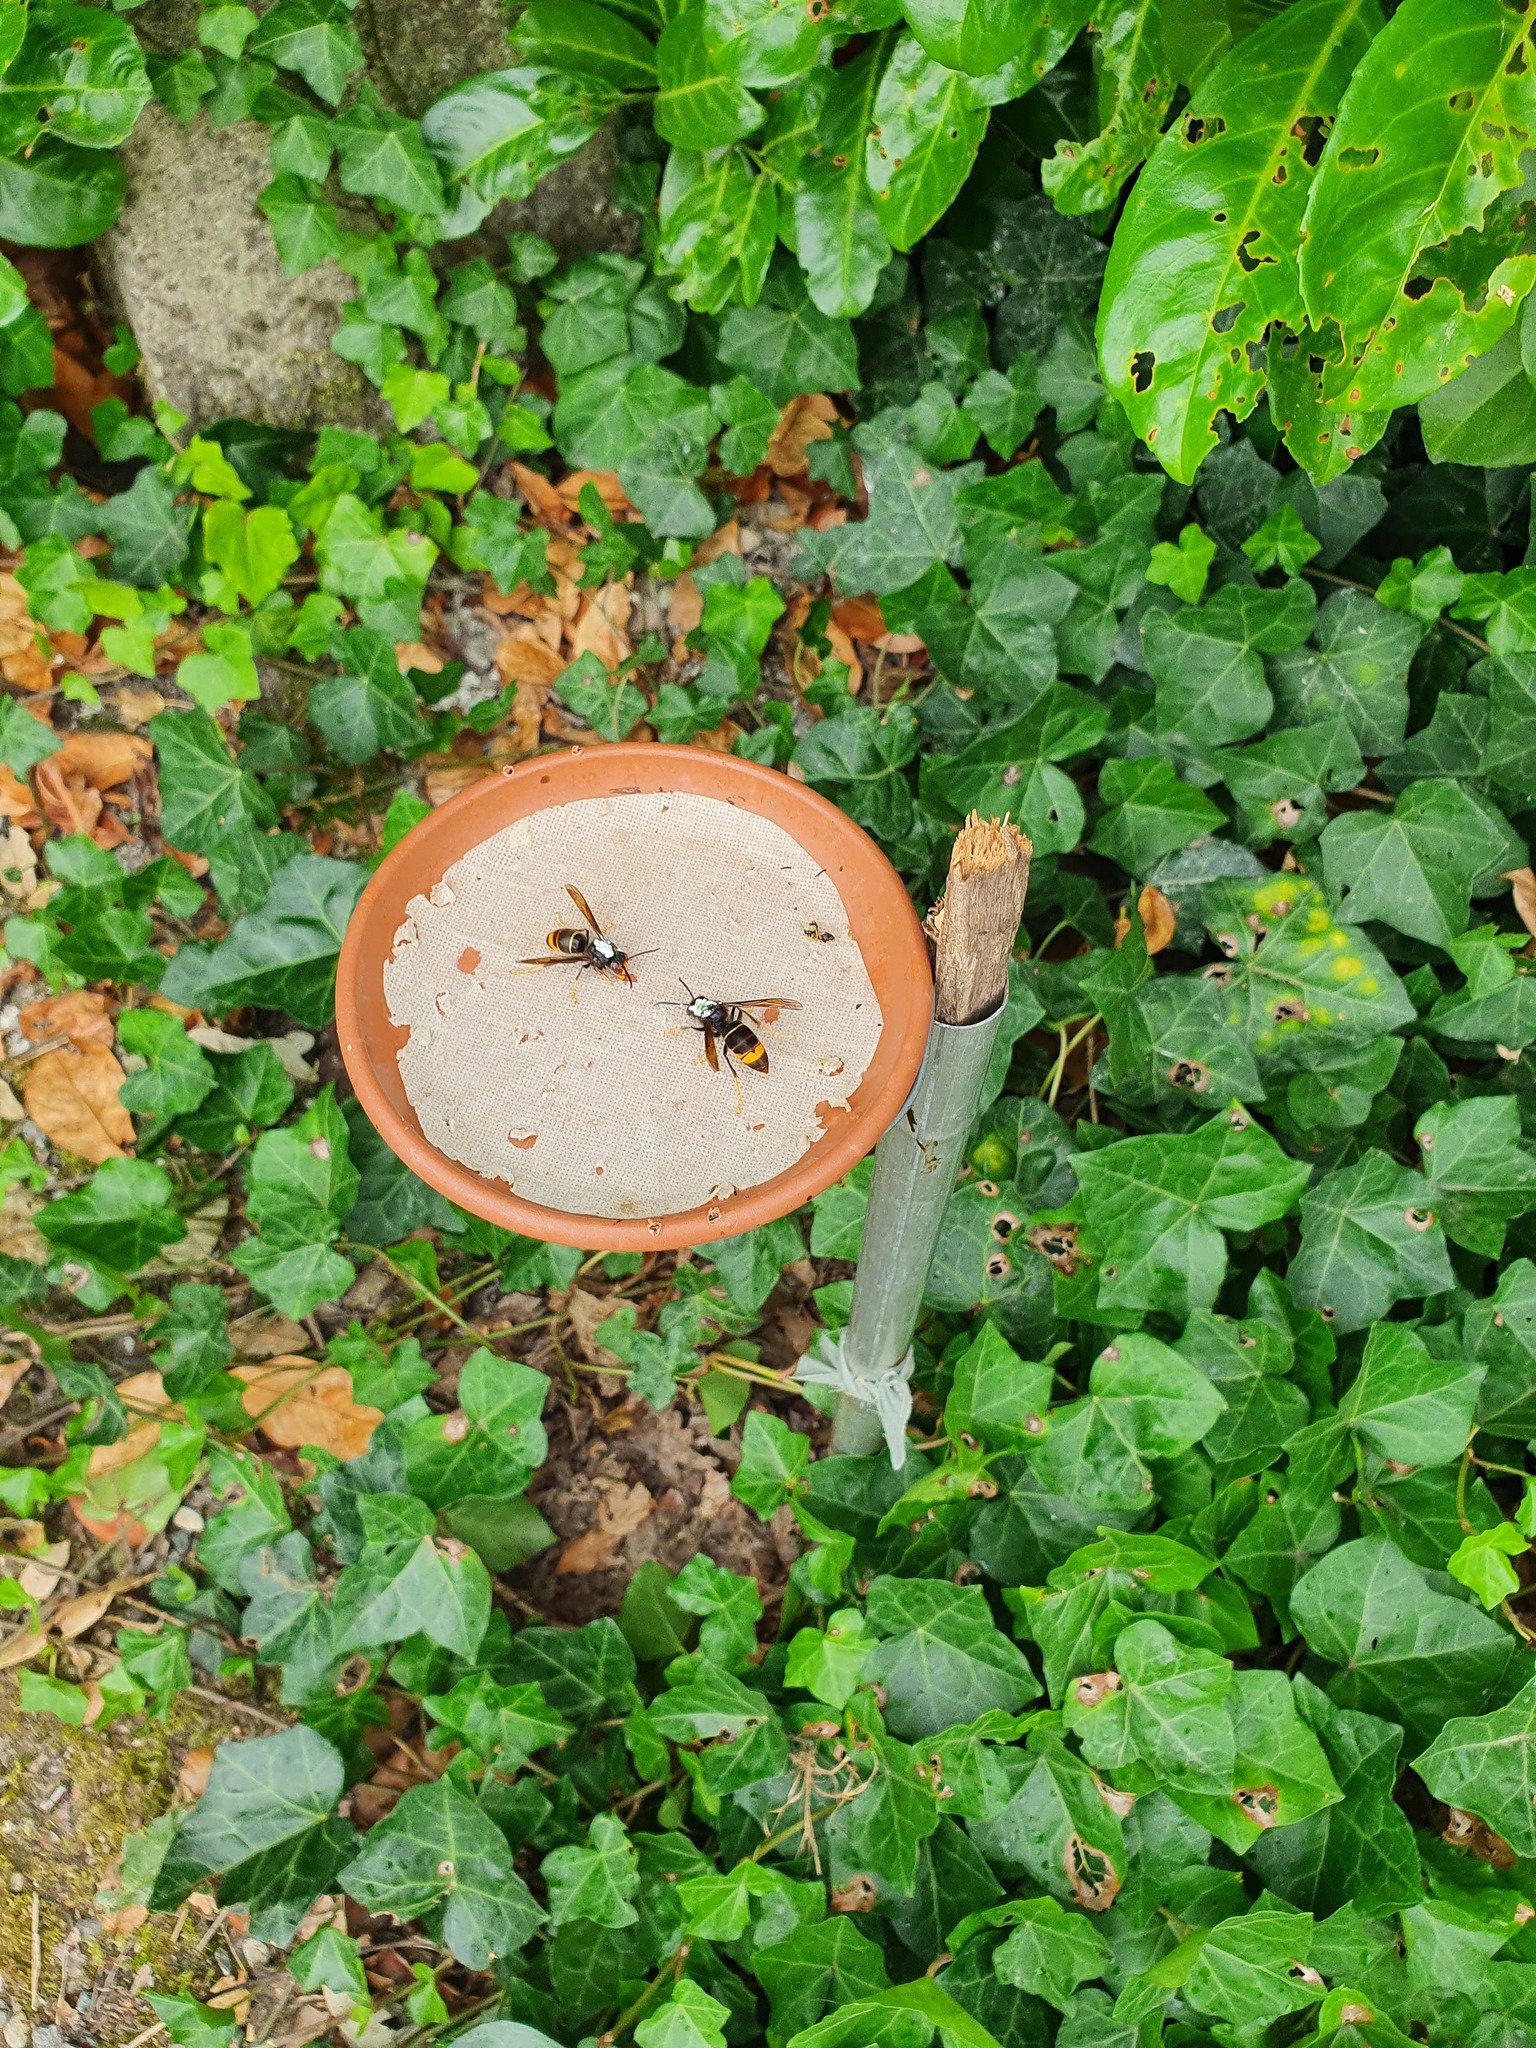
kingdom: Animalia
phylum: Arthropoda
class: Insecta
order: Hymenoptera
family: Vespidae
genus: Vespa
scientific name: Vespa velutina
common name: Asian hornet
